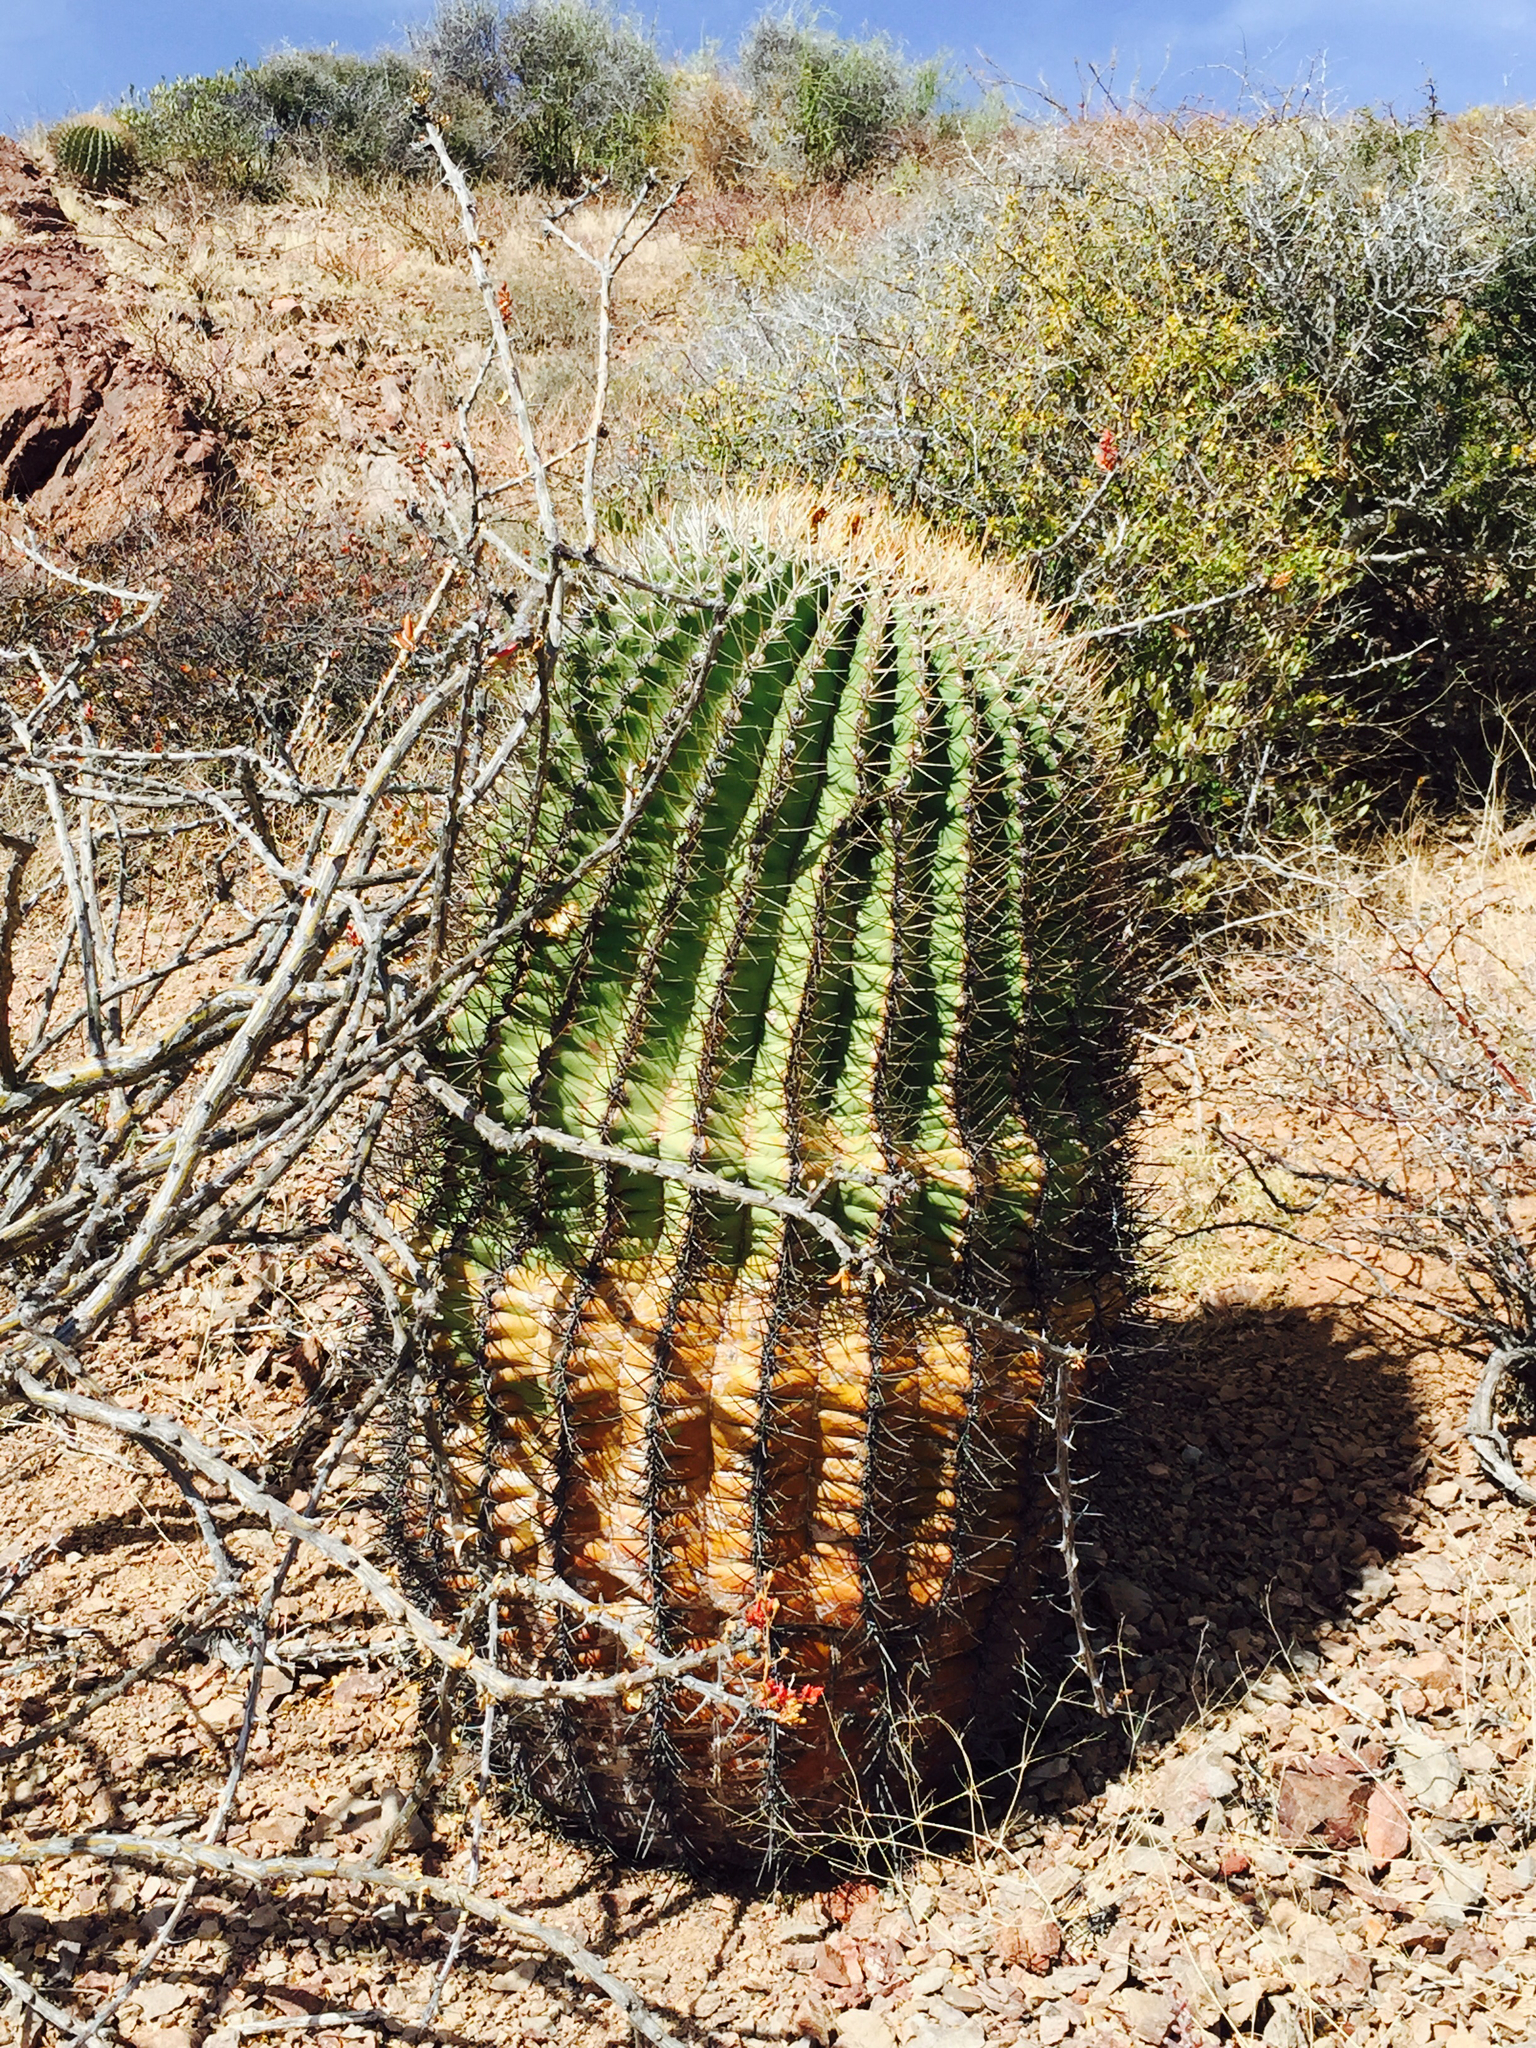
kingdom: Plantae
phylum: Tracheophyta
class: Magnoliopsida
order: Caryophyllales
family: Cactaceae
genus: Ferocactus
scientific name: Ferocactus emoryi
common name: Emory's barrel cactus
